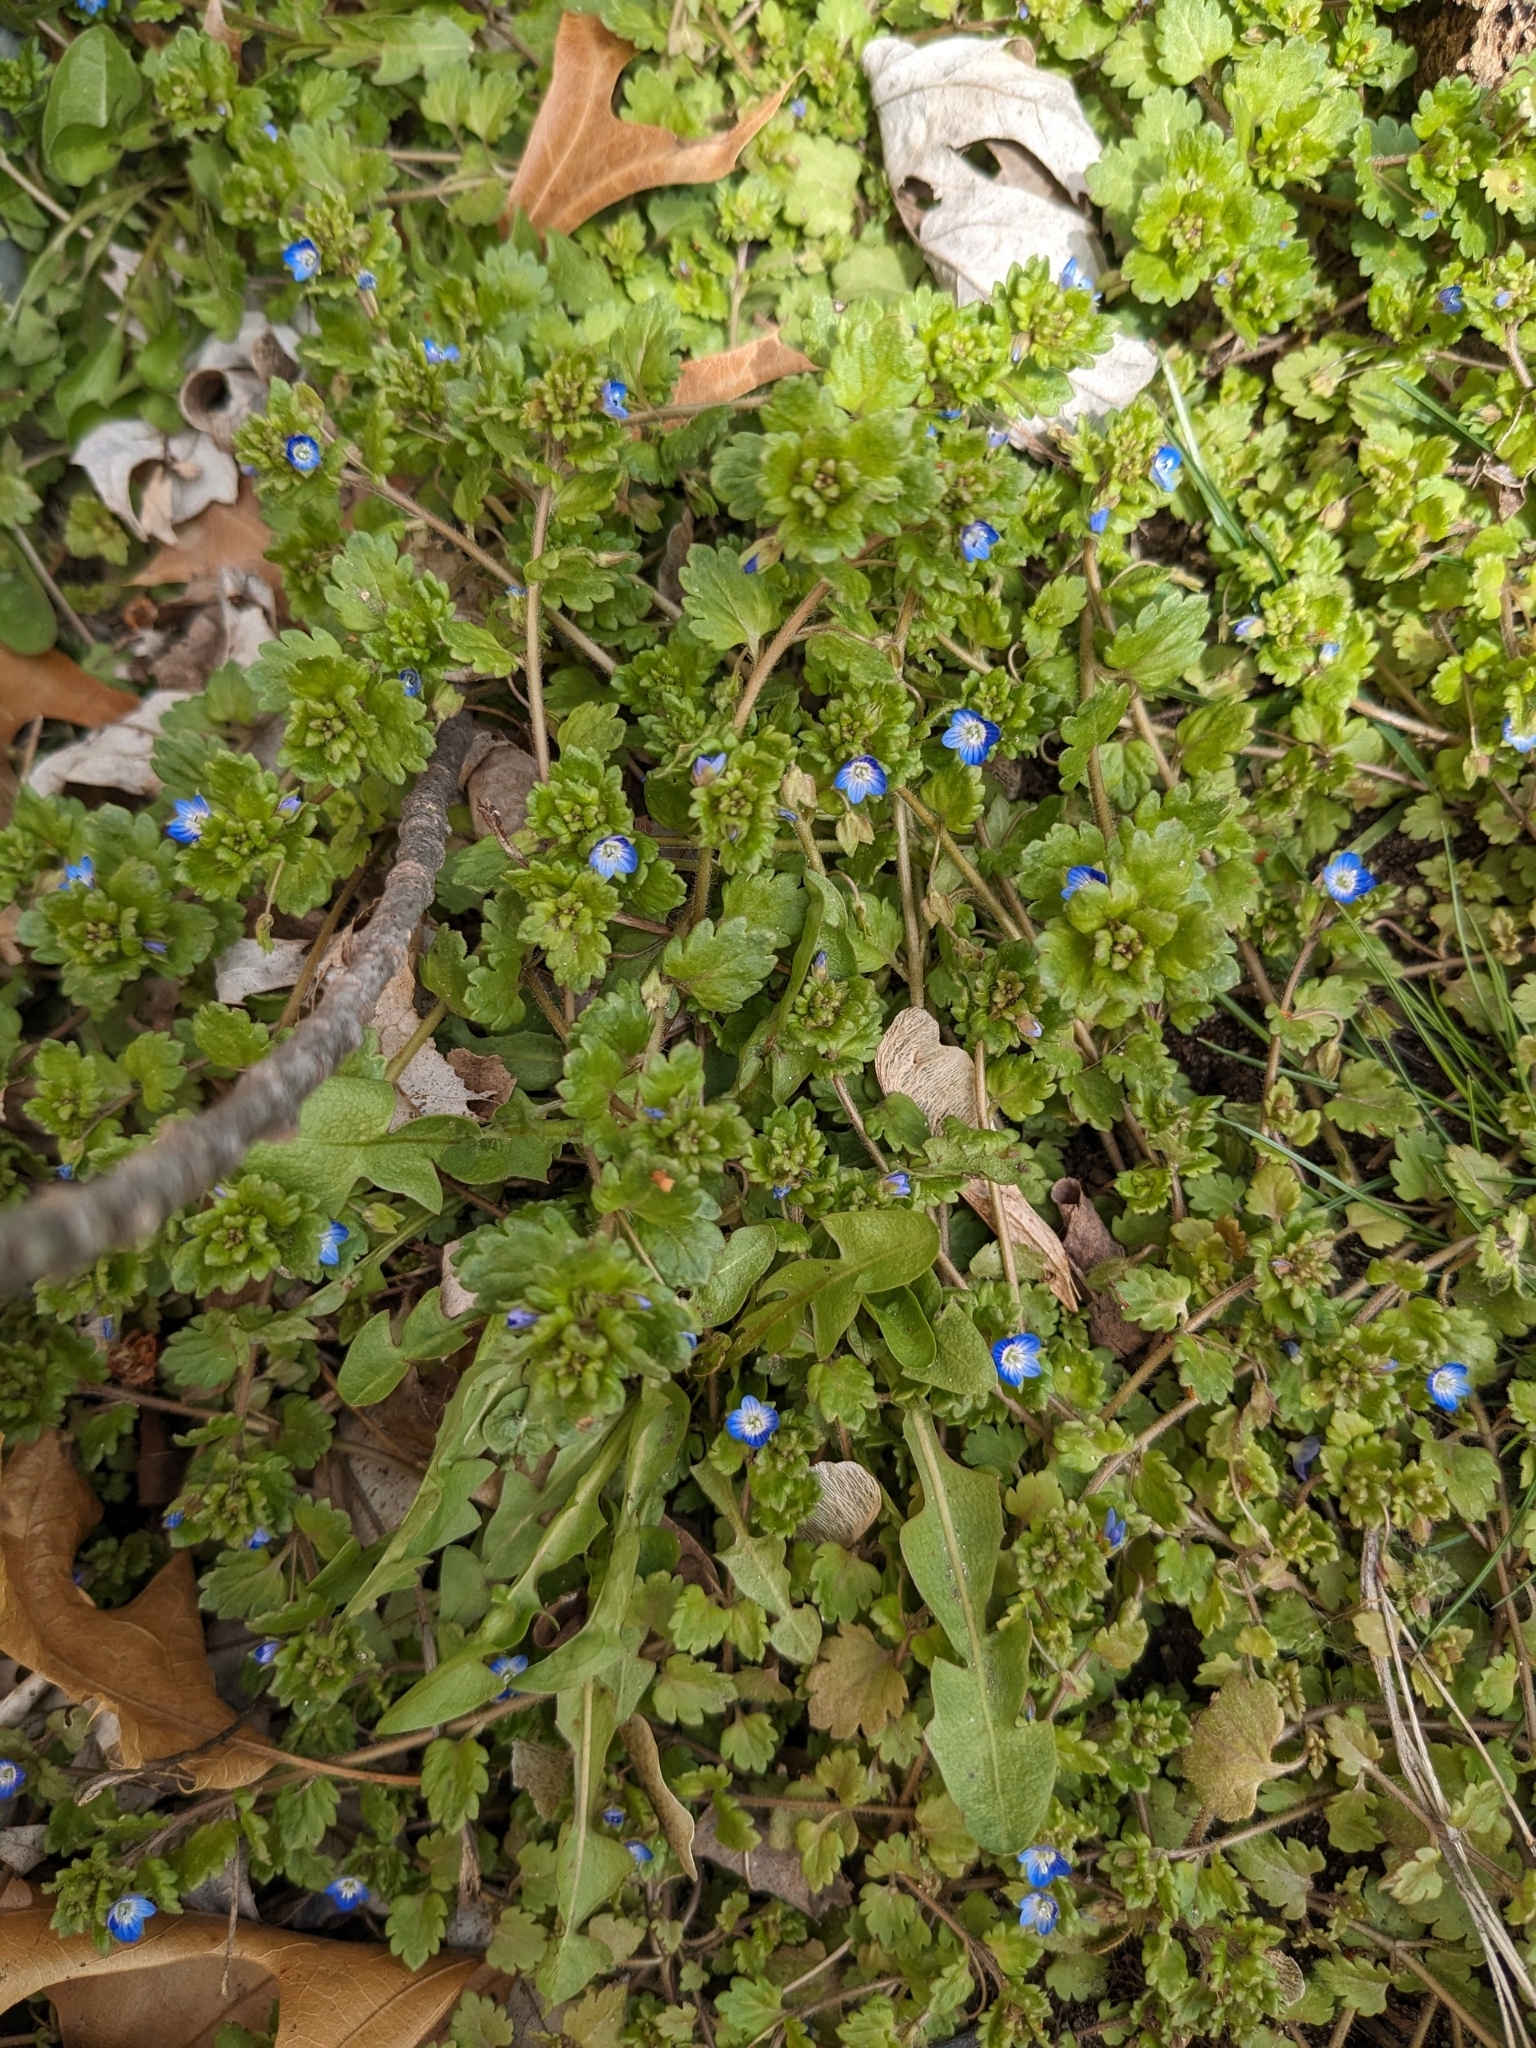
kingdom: Plantae
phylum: Tracheophyta
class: Magnoliopsida
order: Lamiales
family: Plantaginaceae
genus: Veronica
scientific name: Veronica polita
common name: Grey field-speedwell
